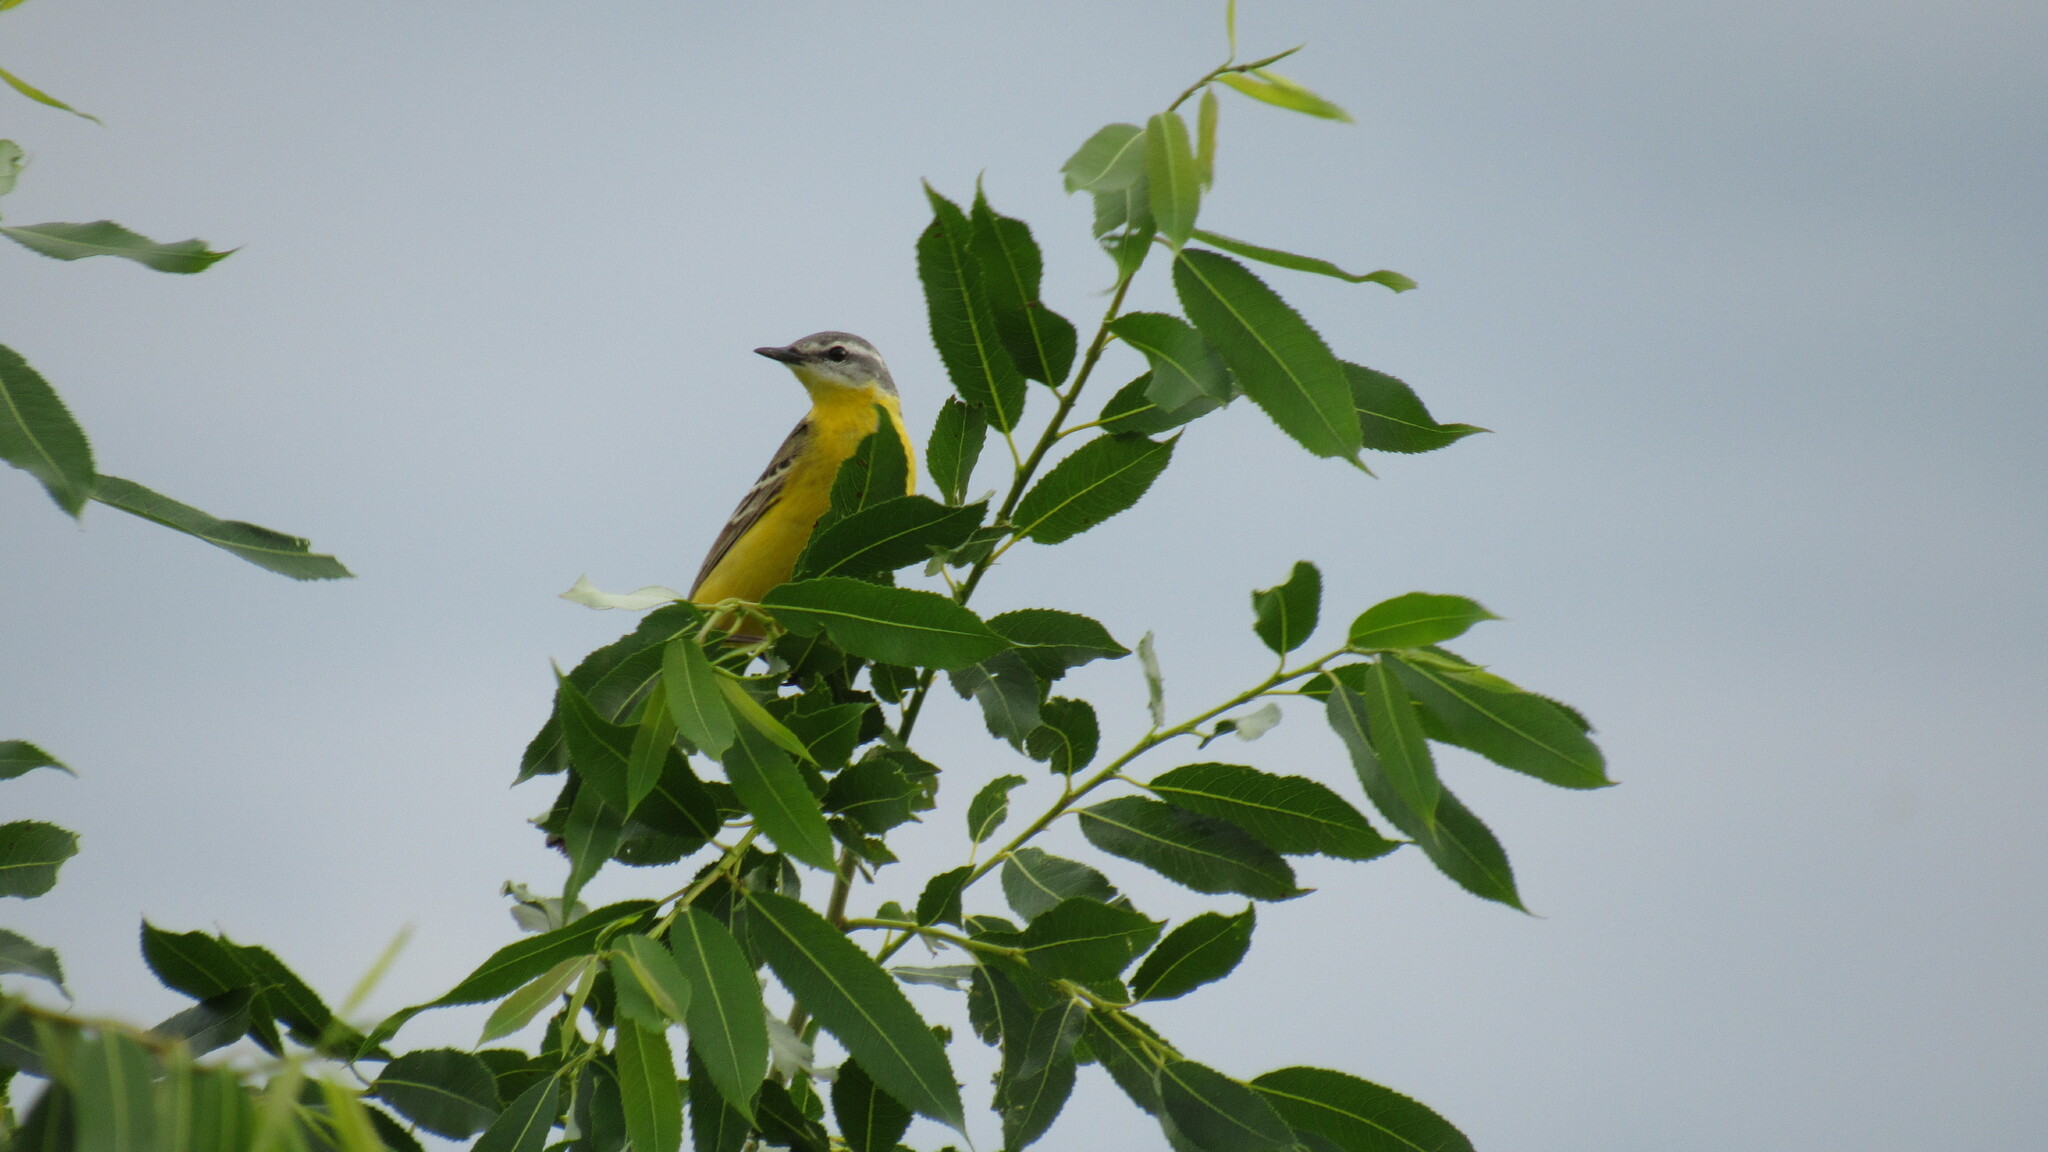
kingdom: Animalia
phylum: Chordata
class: Aves
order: Passeriformes
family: Motacillidae
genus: Motacilla
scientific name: Motacilla flava
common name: Western yellow wagtail
